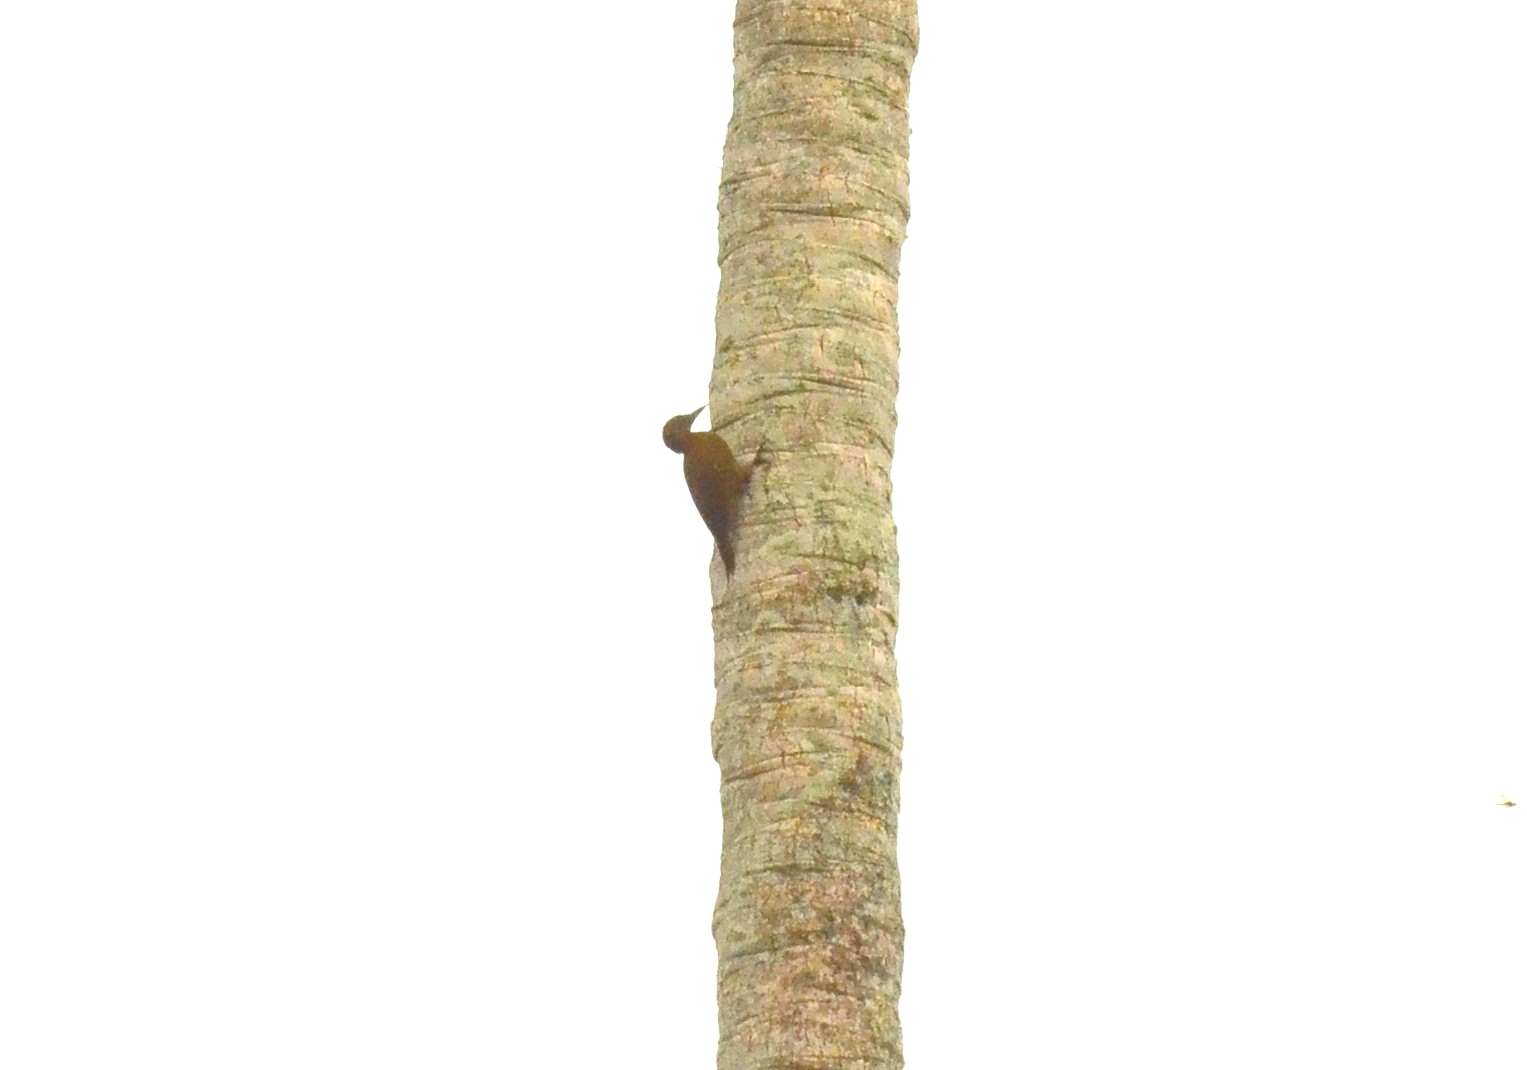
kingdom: Animalia
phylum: Chordata
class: Aves
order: Piciformes
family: Picidae
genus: Micropternus
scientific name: Micropternus brachyurus
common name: Rufous woodpecker
